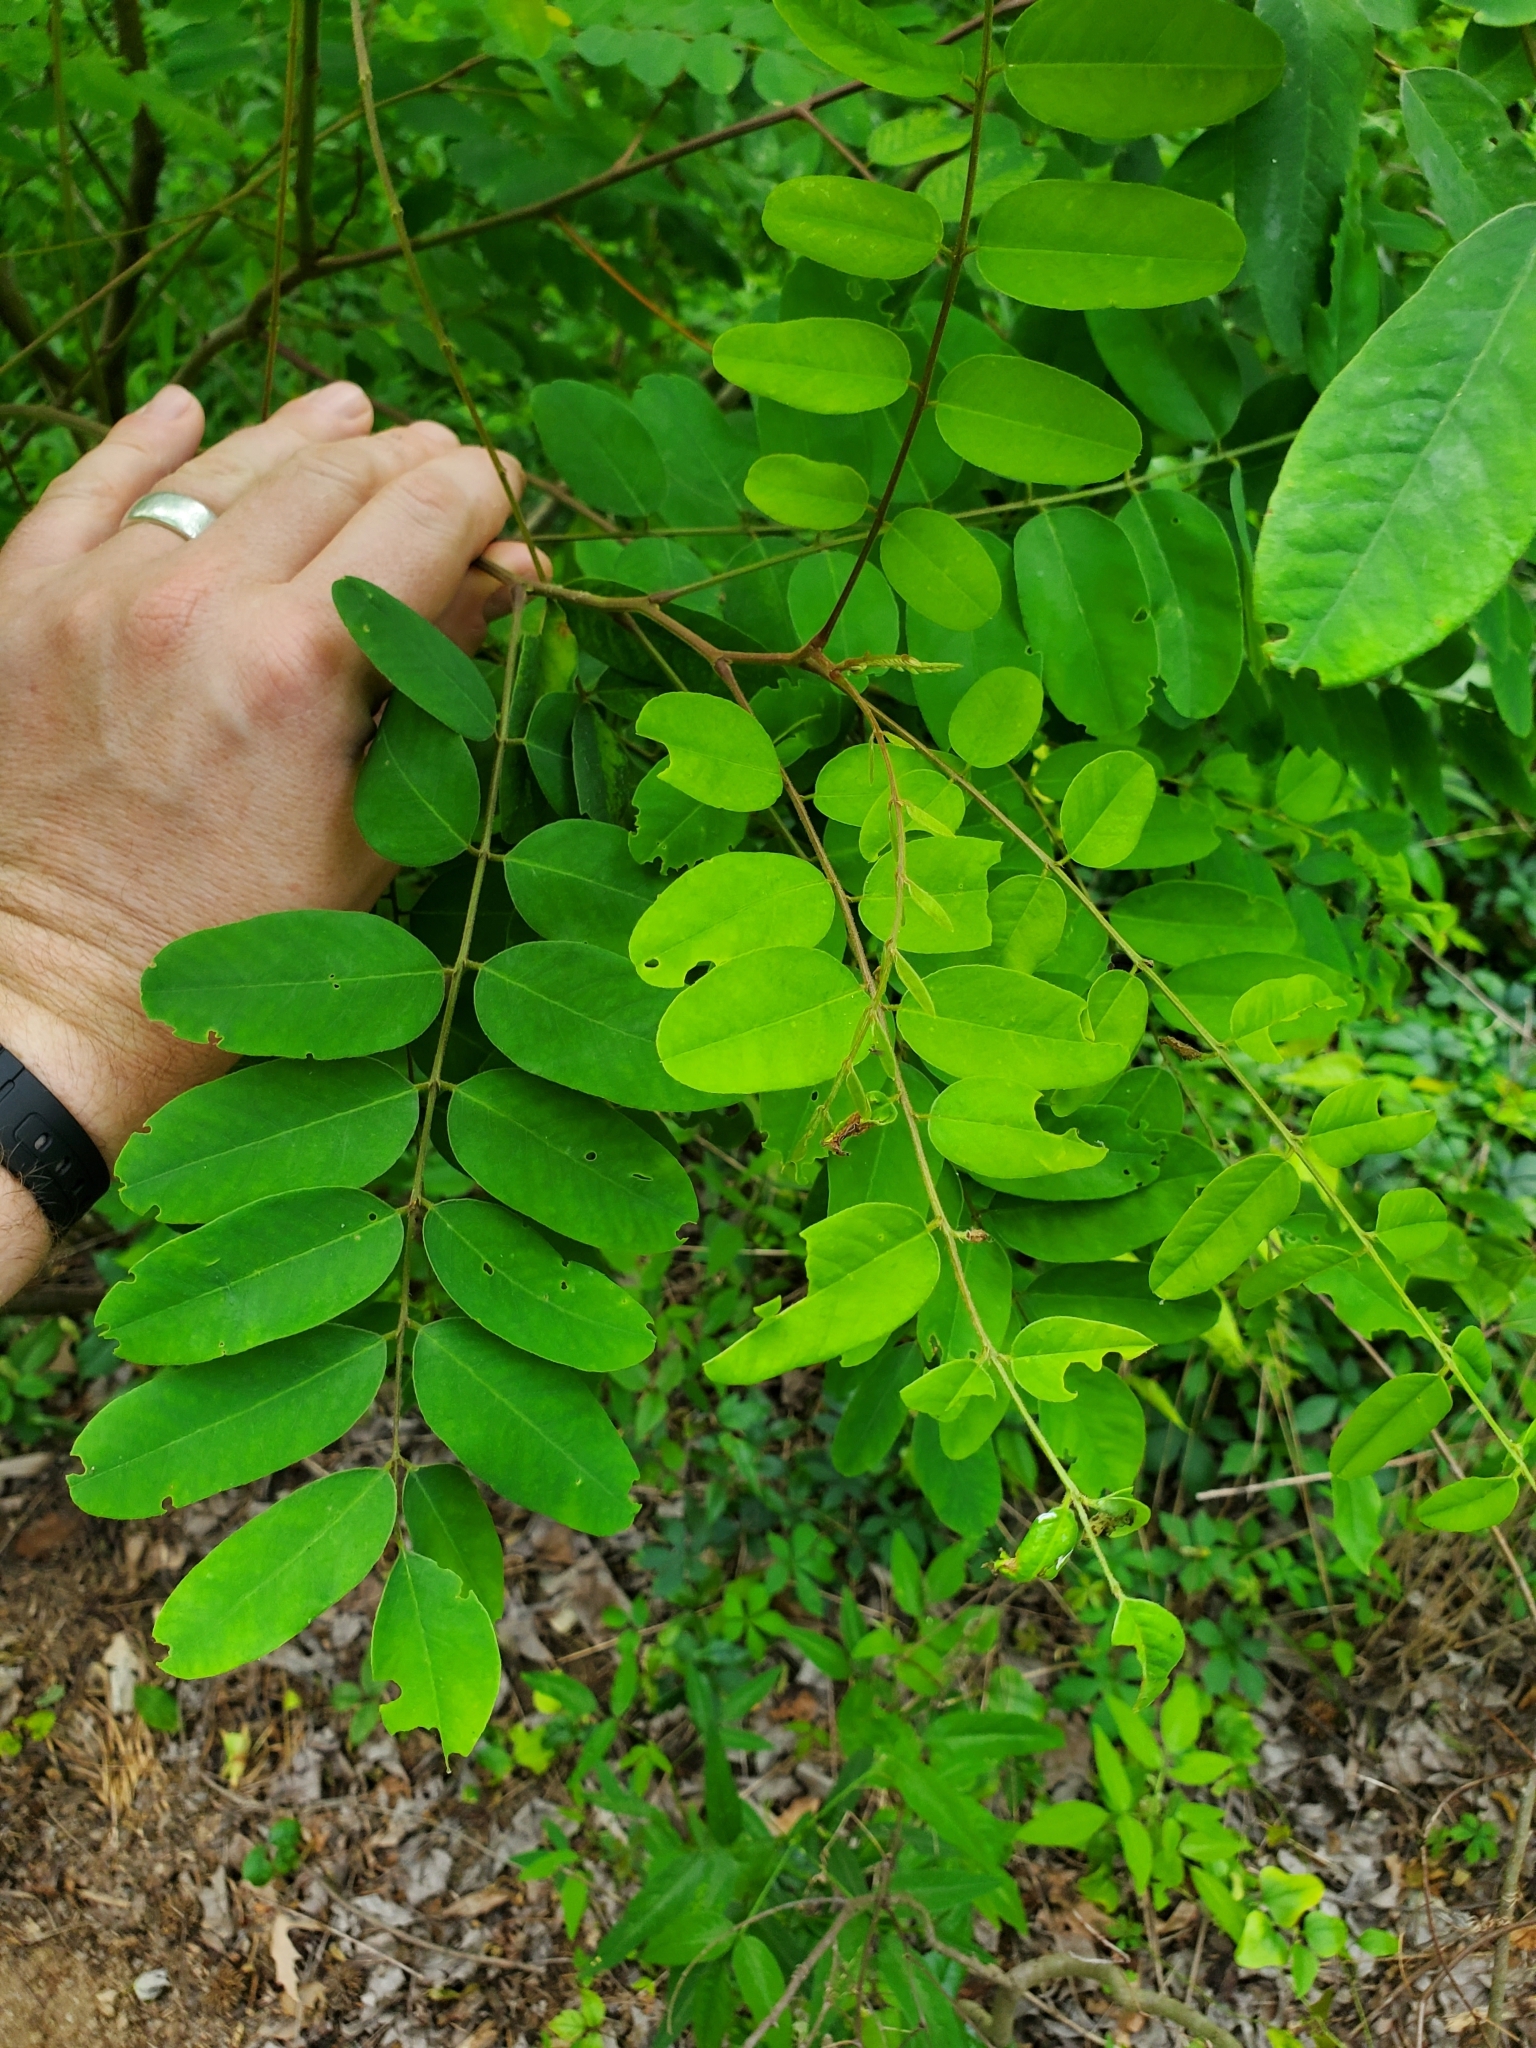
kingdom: Plantae
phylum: Tracheophyta
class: Magnoliopsida
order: Fabales
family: Fabaceae
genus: Amorpha
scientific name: Amorpha fruticosa
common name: False indigo
